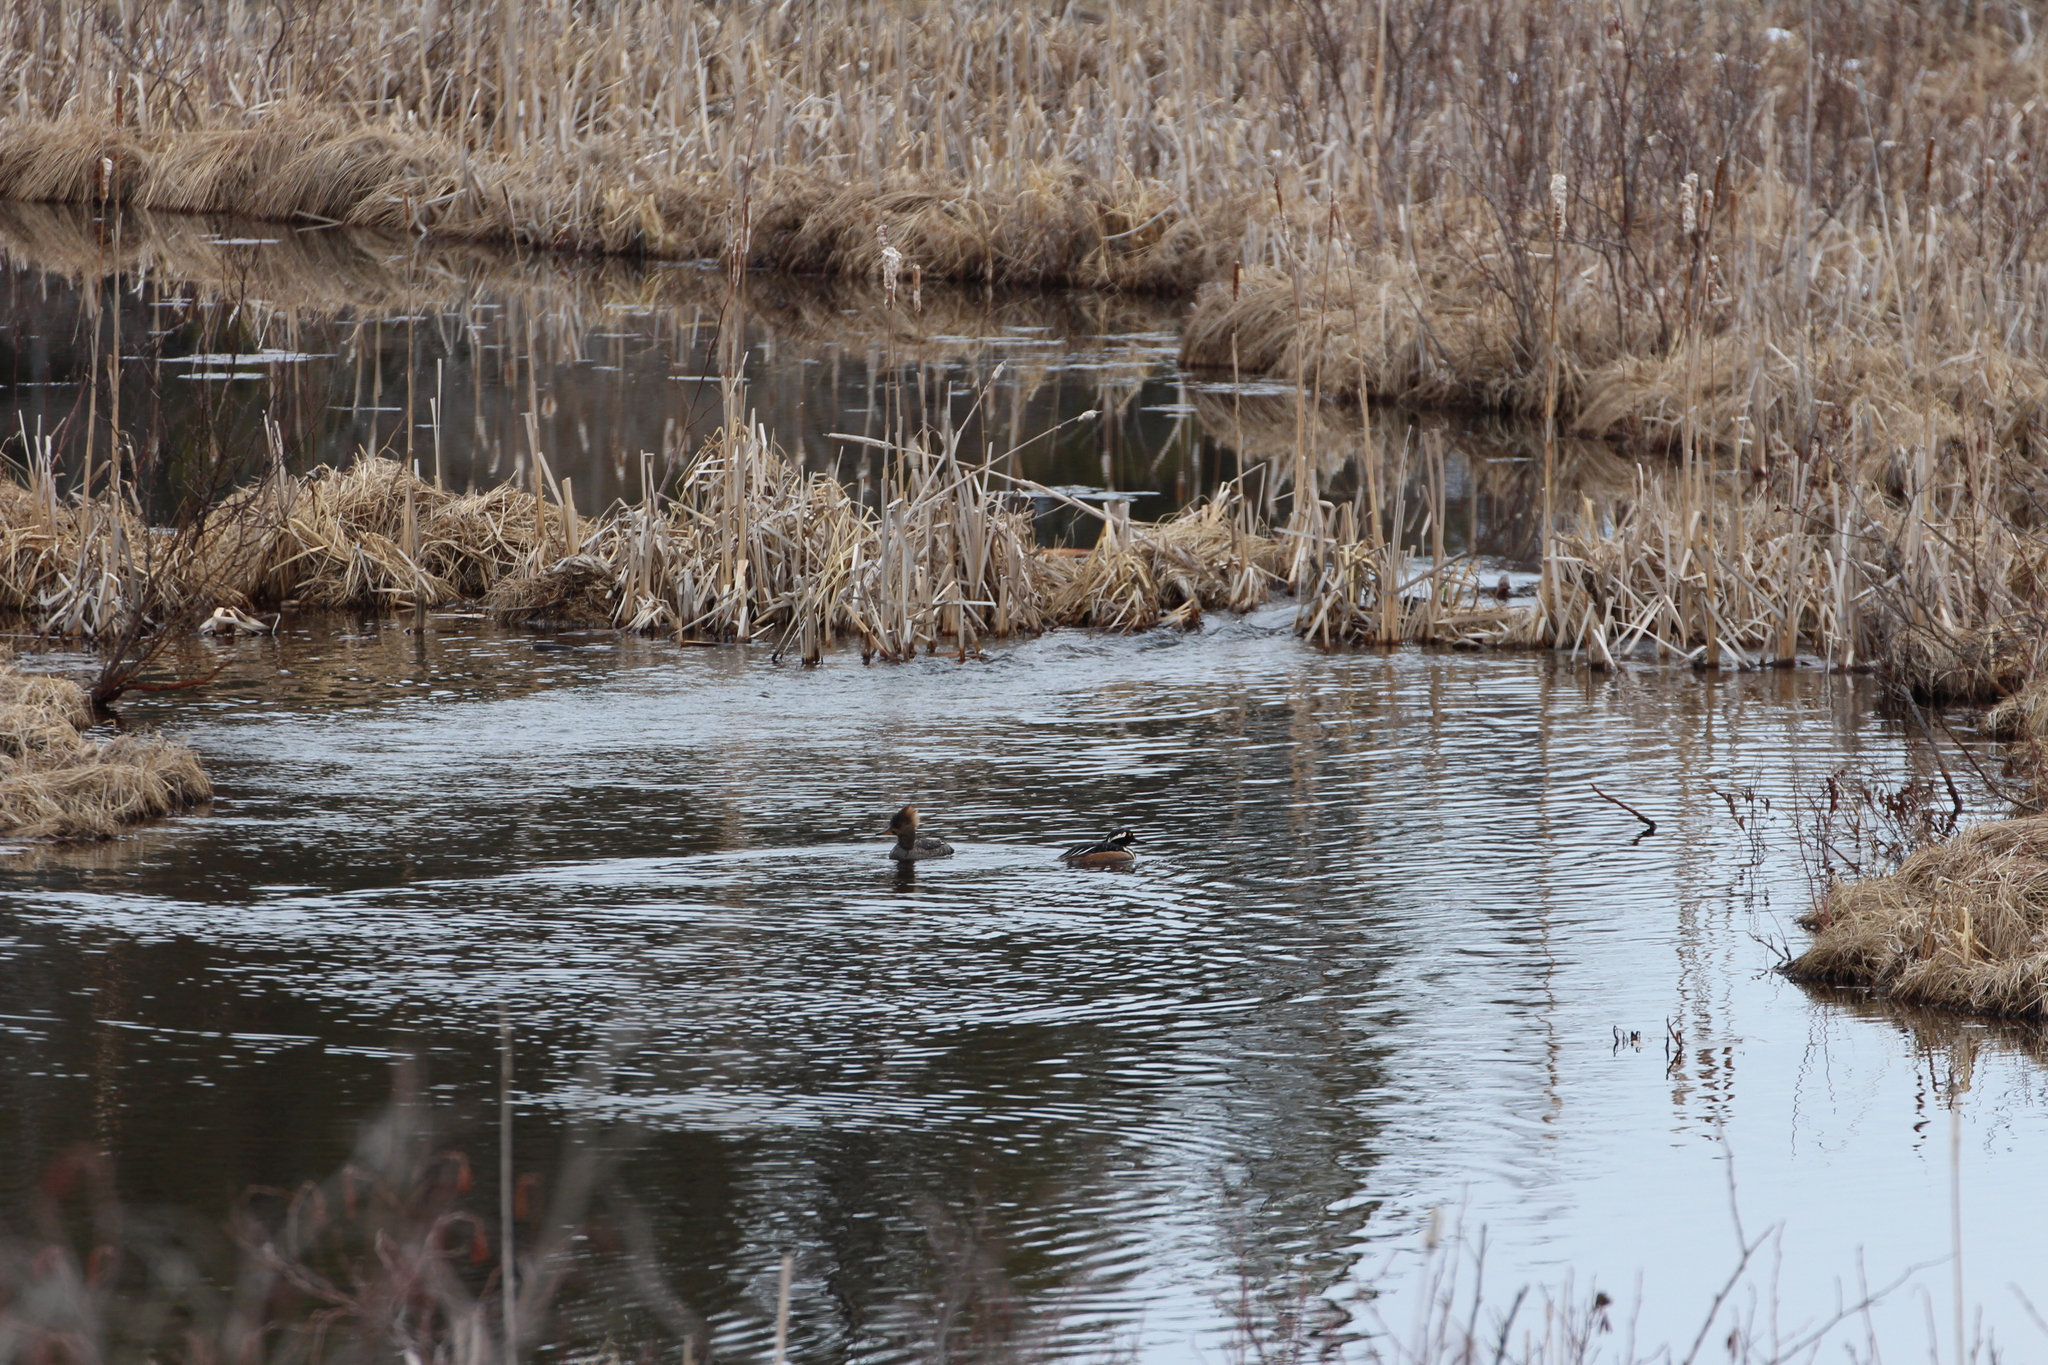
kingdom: Animalia
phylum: Chordata
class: Aves
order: Anseriformes
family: Anatidae
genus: Lophodytes
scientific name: Lophodytes cucullatus
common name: Hooded merganser
